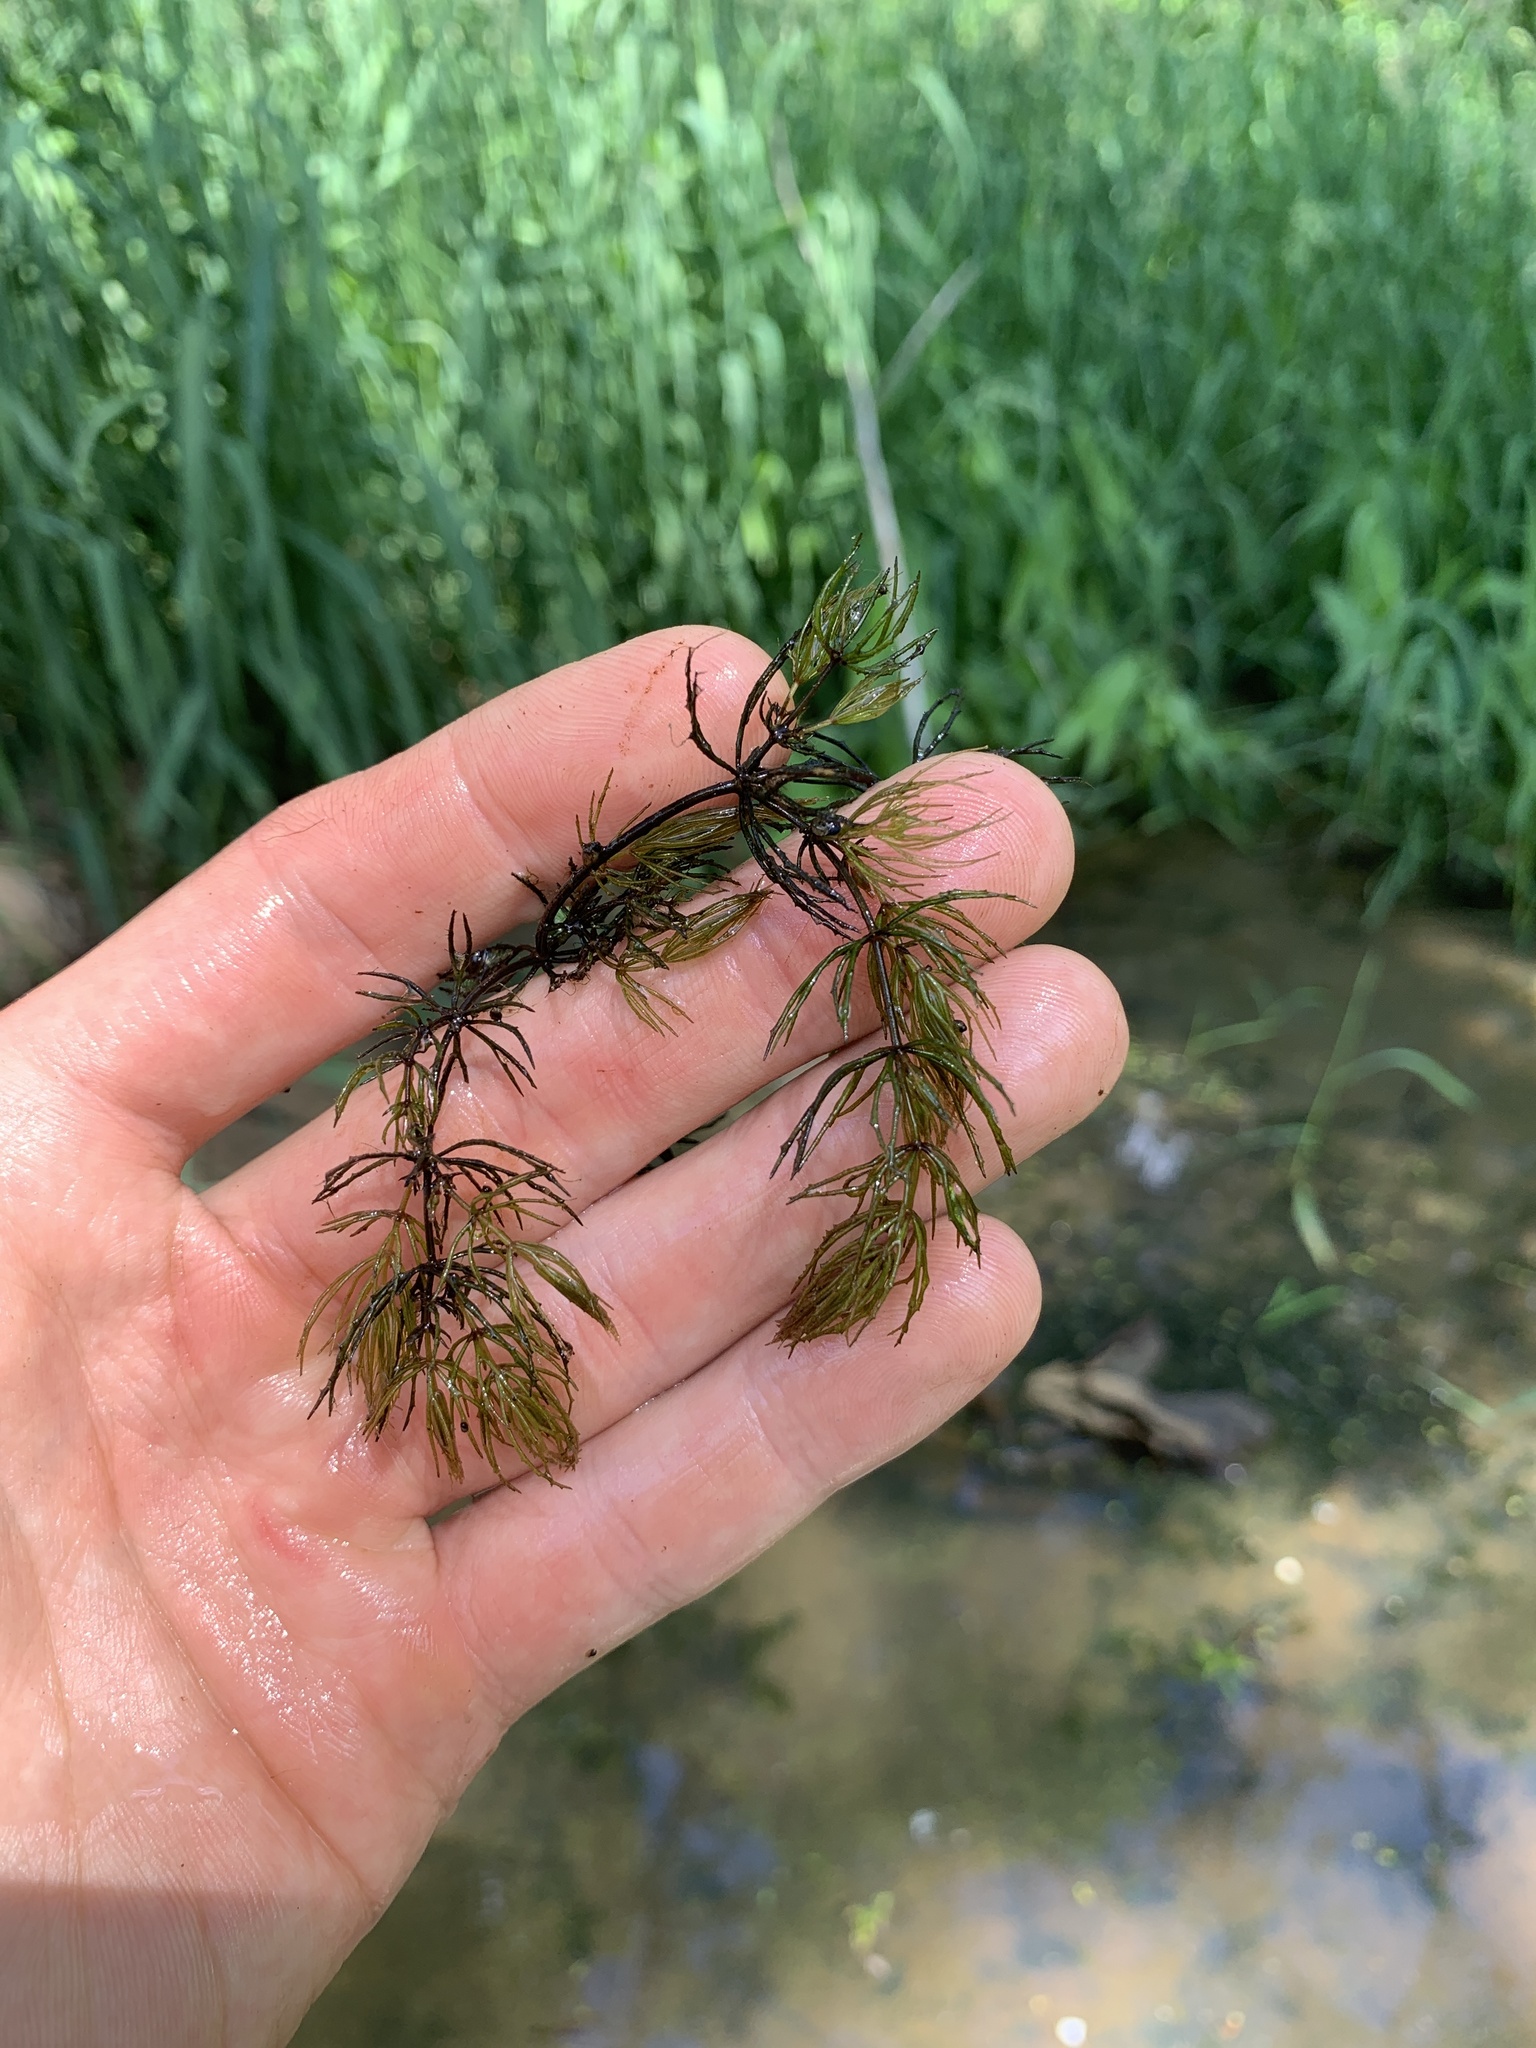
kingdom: Plantae
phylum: Tracheophyta
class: Magnoliopsida
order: Ceratophyllales
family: Ceratophyllaceae
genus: Ceratophyllum
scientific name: Ceratophyllum demersum
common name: Rigid hornwort
